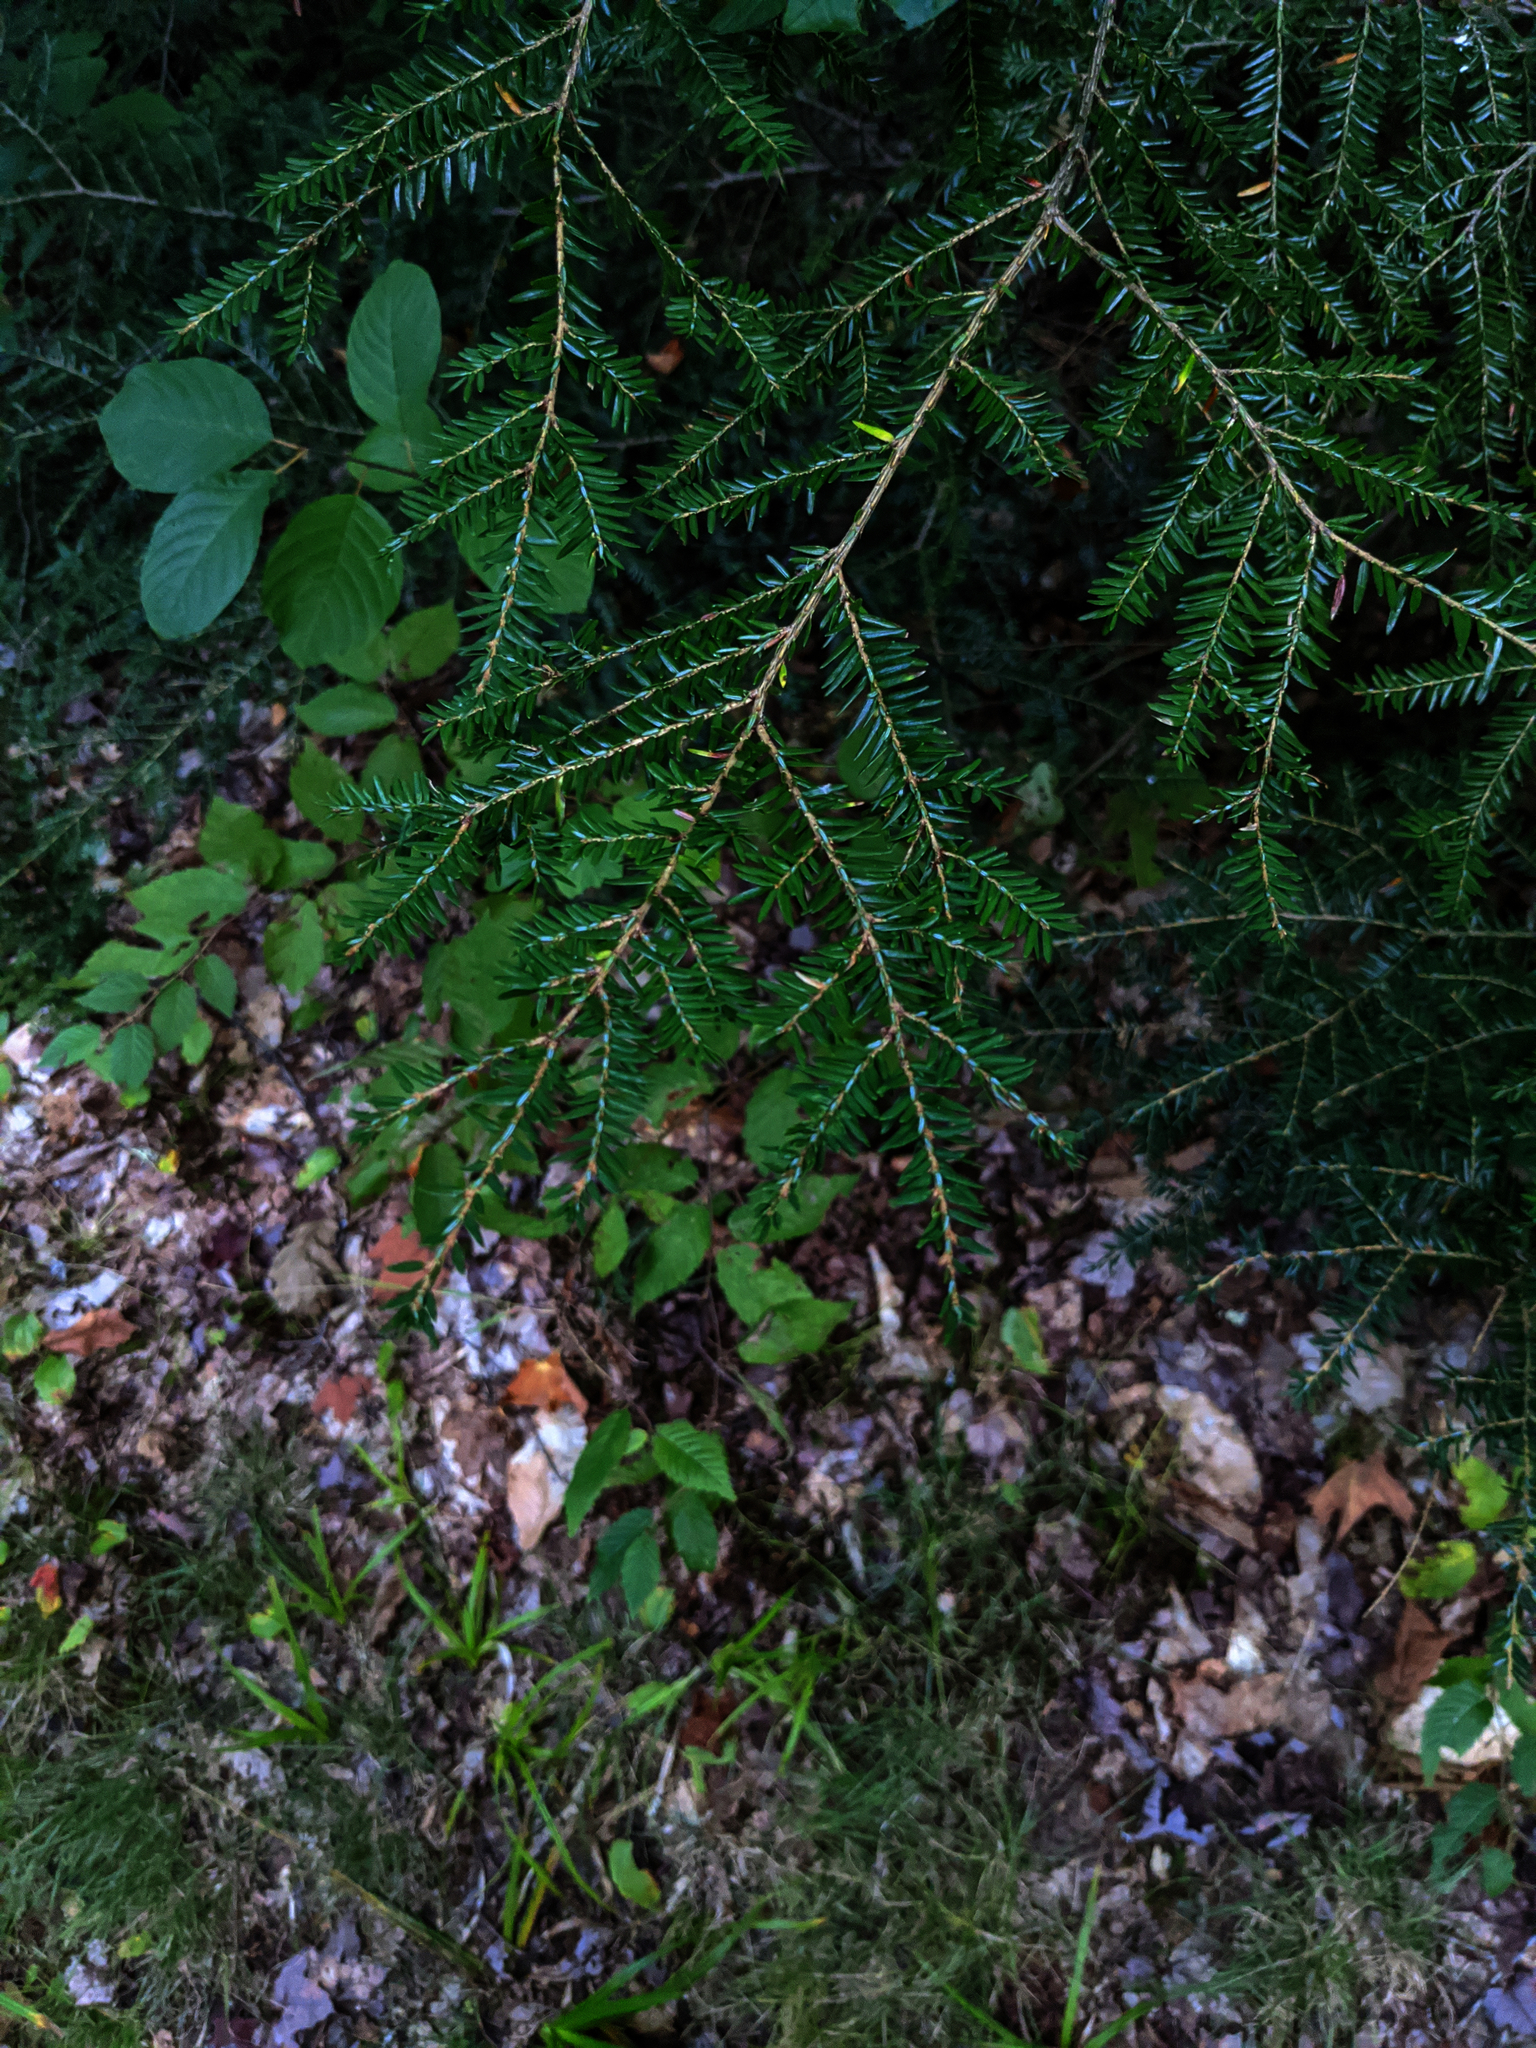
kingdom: Plantae
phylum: Tracheophyta
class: Pinopsida
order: Pinales
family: Pinaceae
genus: Tsuga
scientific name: Tsuga canadensis
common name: Eastern hemlock
